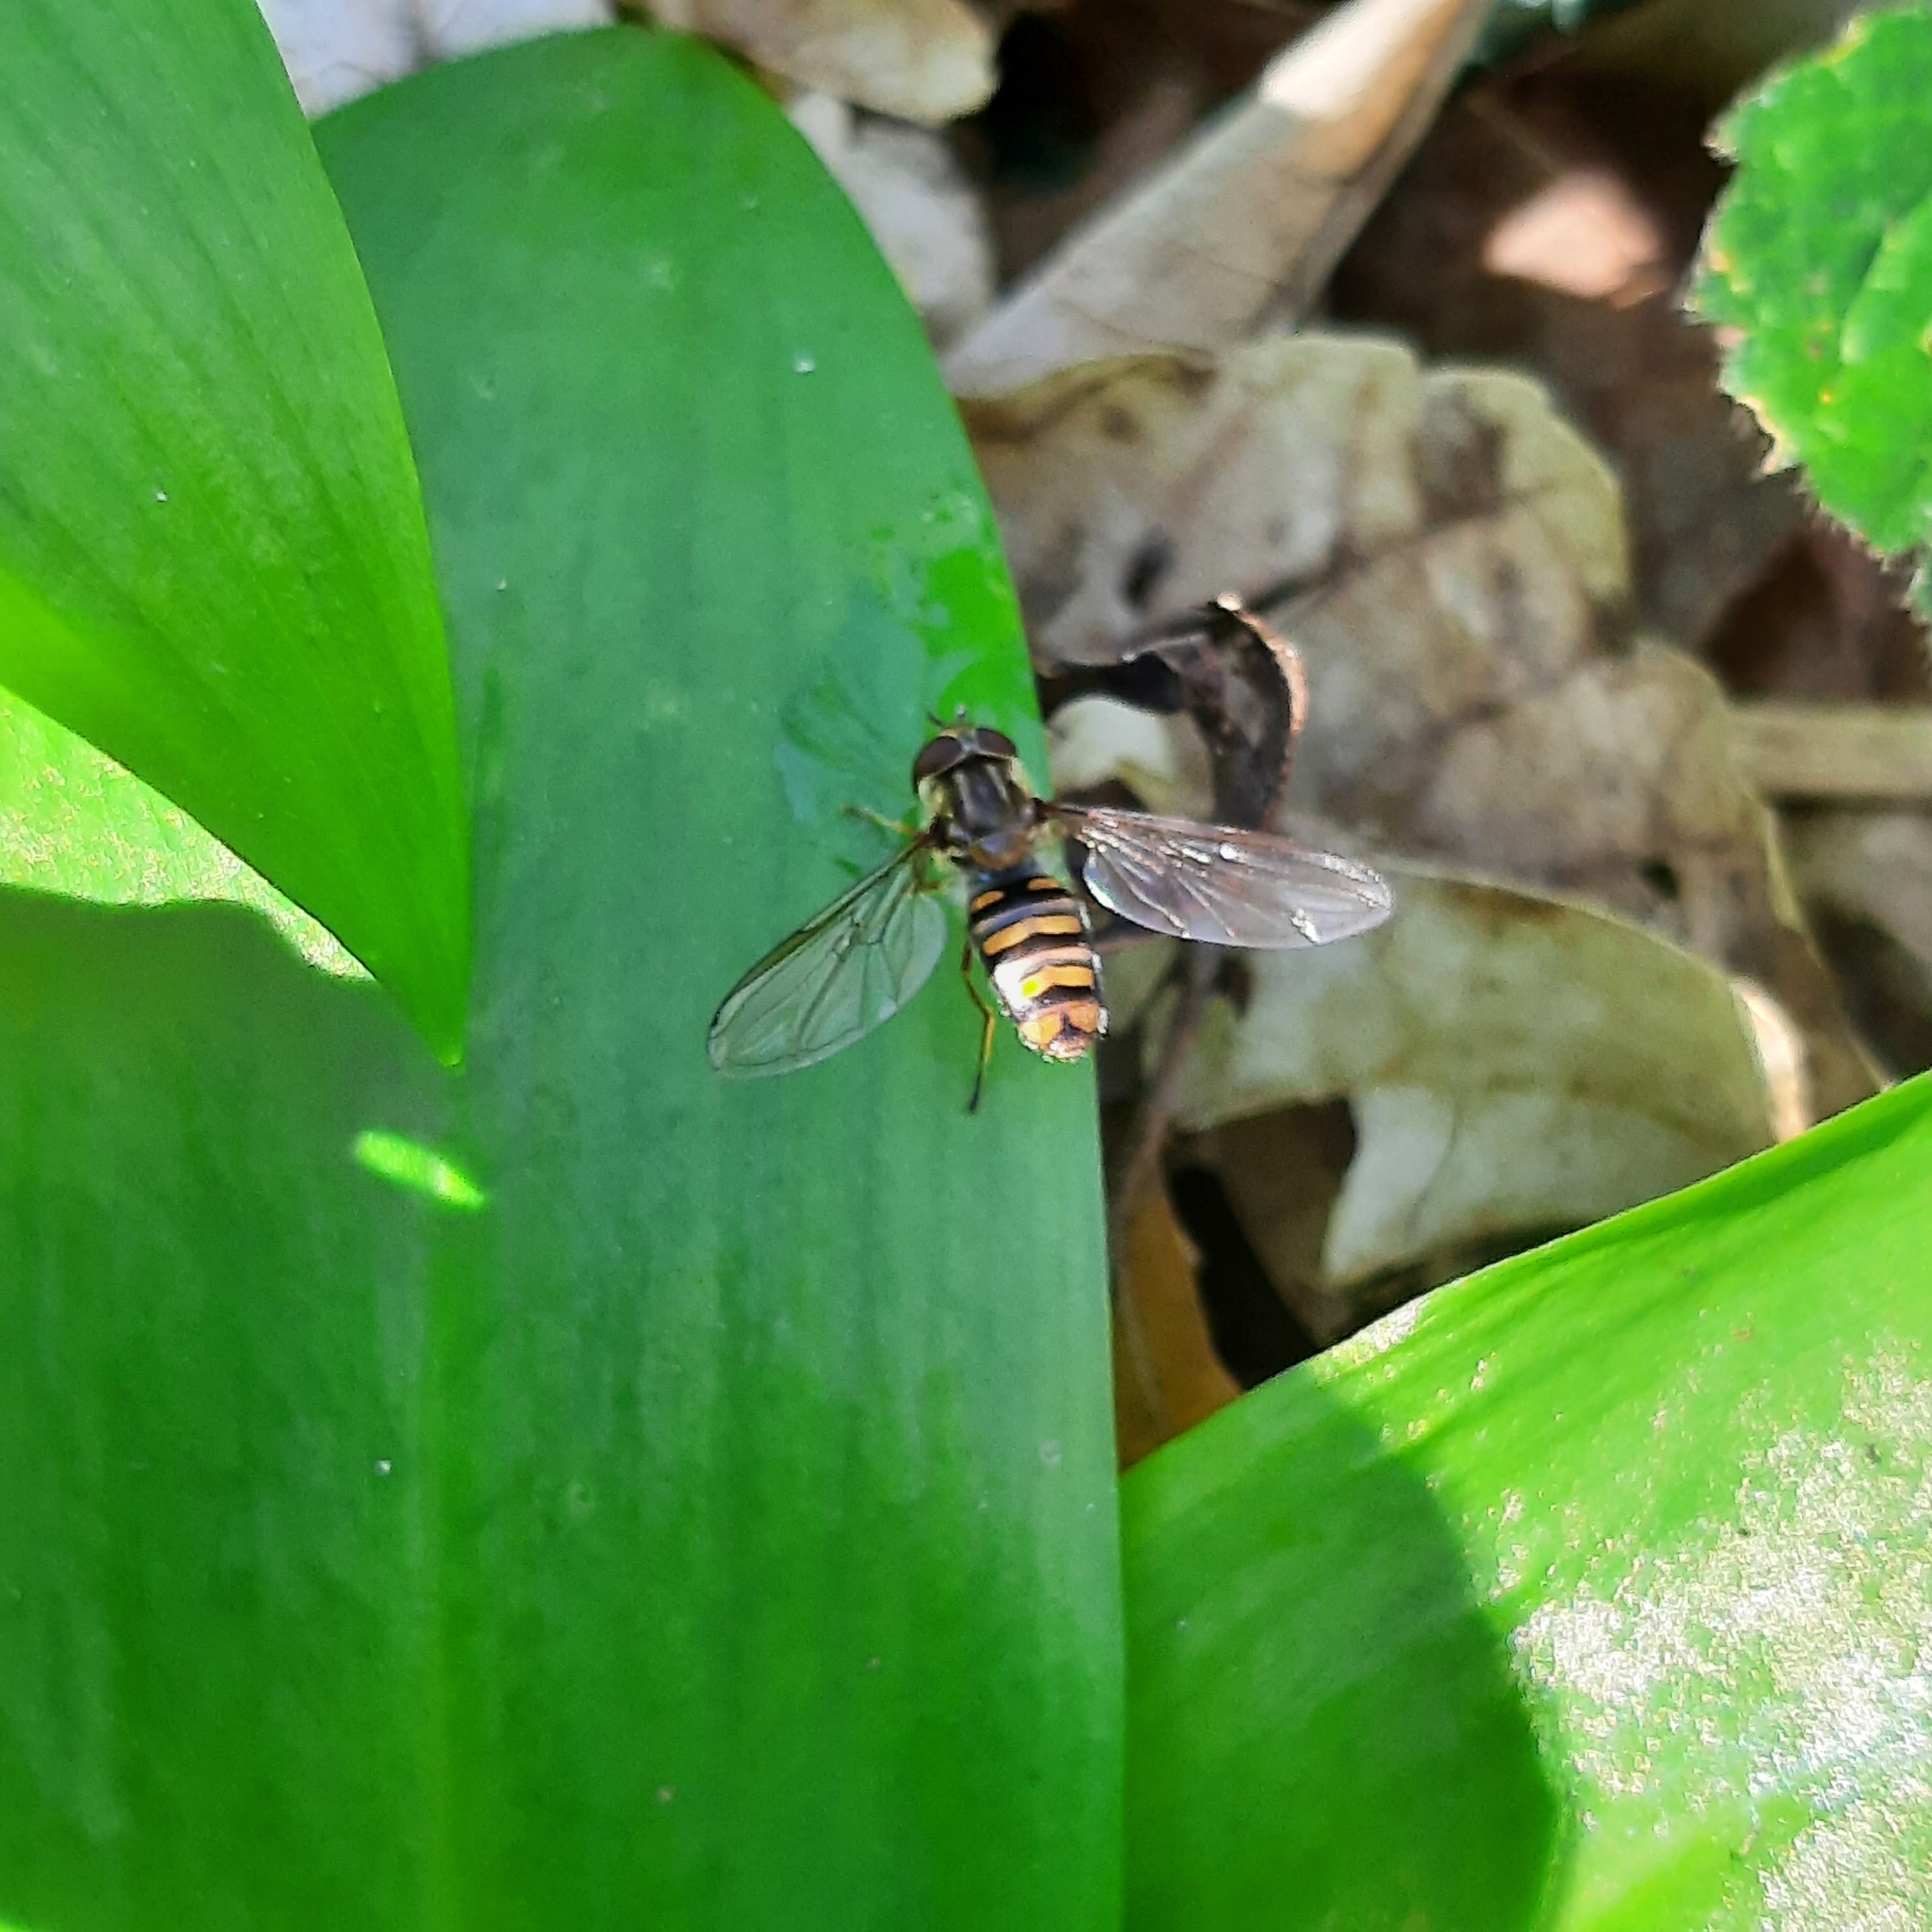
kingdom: Animalia
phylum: Arthropoda
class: Insecta
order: Diptera
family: Syrphidae
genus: Episyrphus
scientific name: Episyrphus balteatus
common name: Marmalade hoverfly
